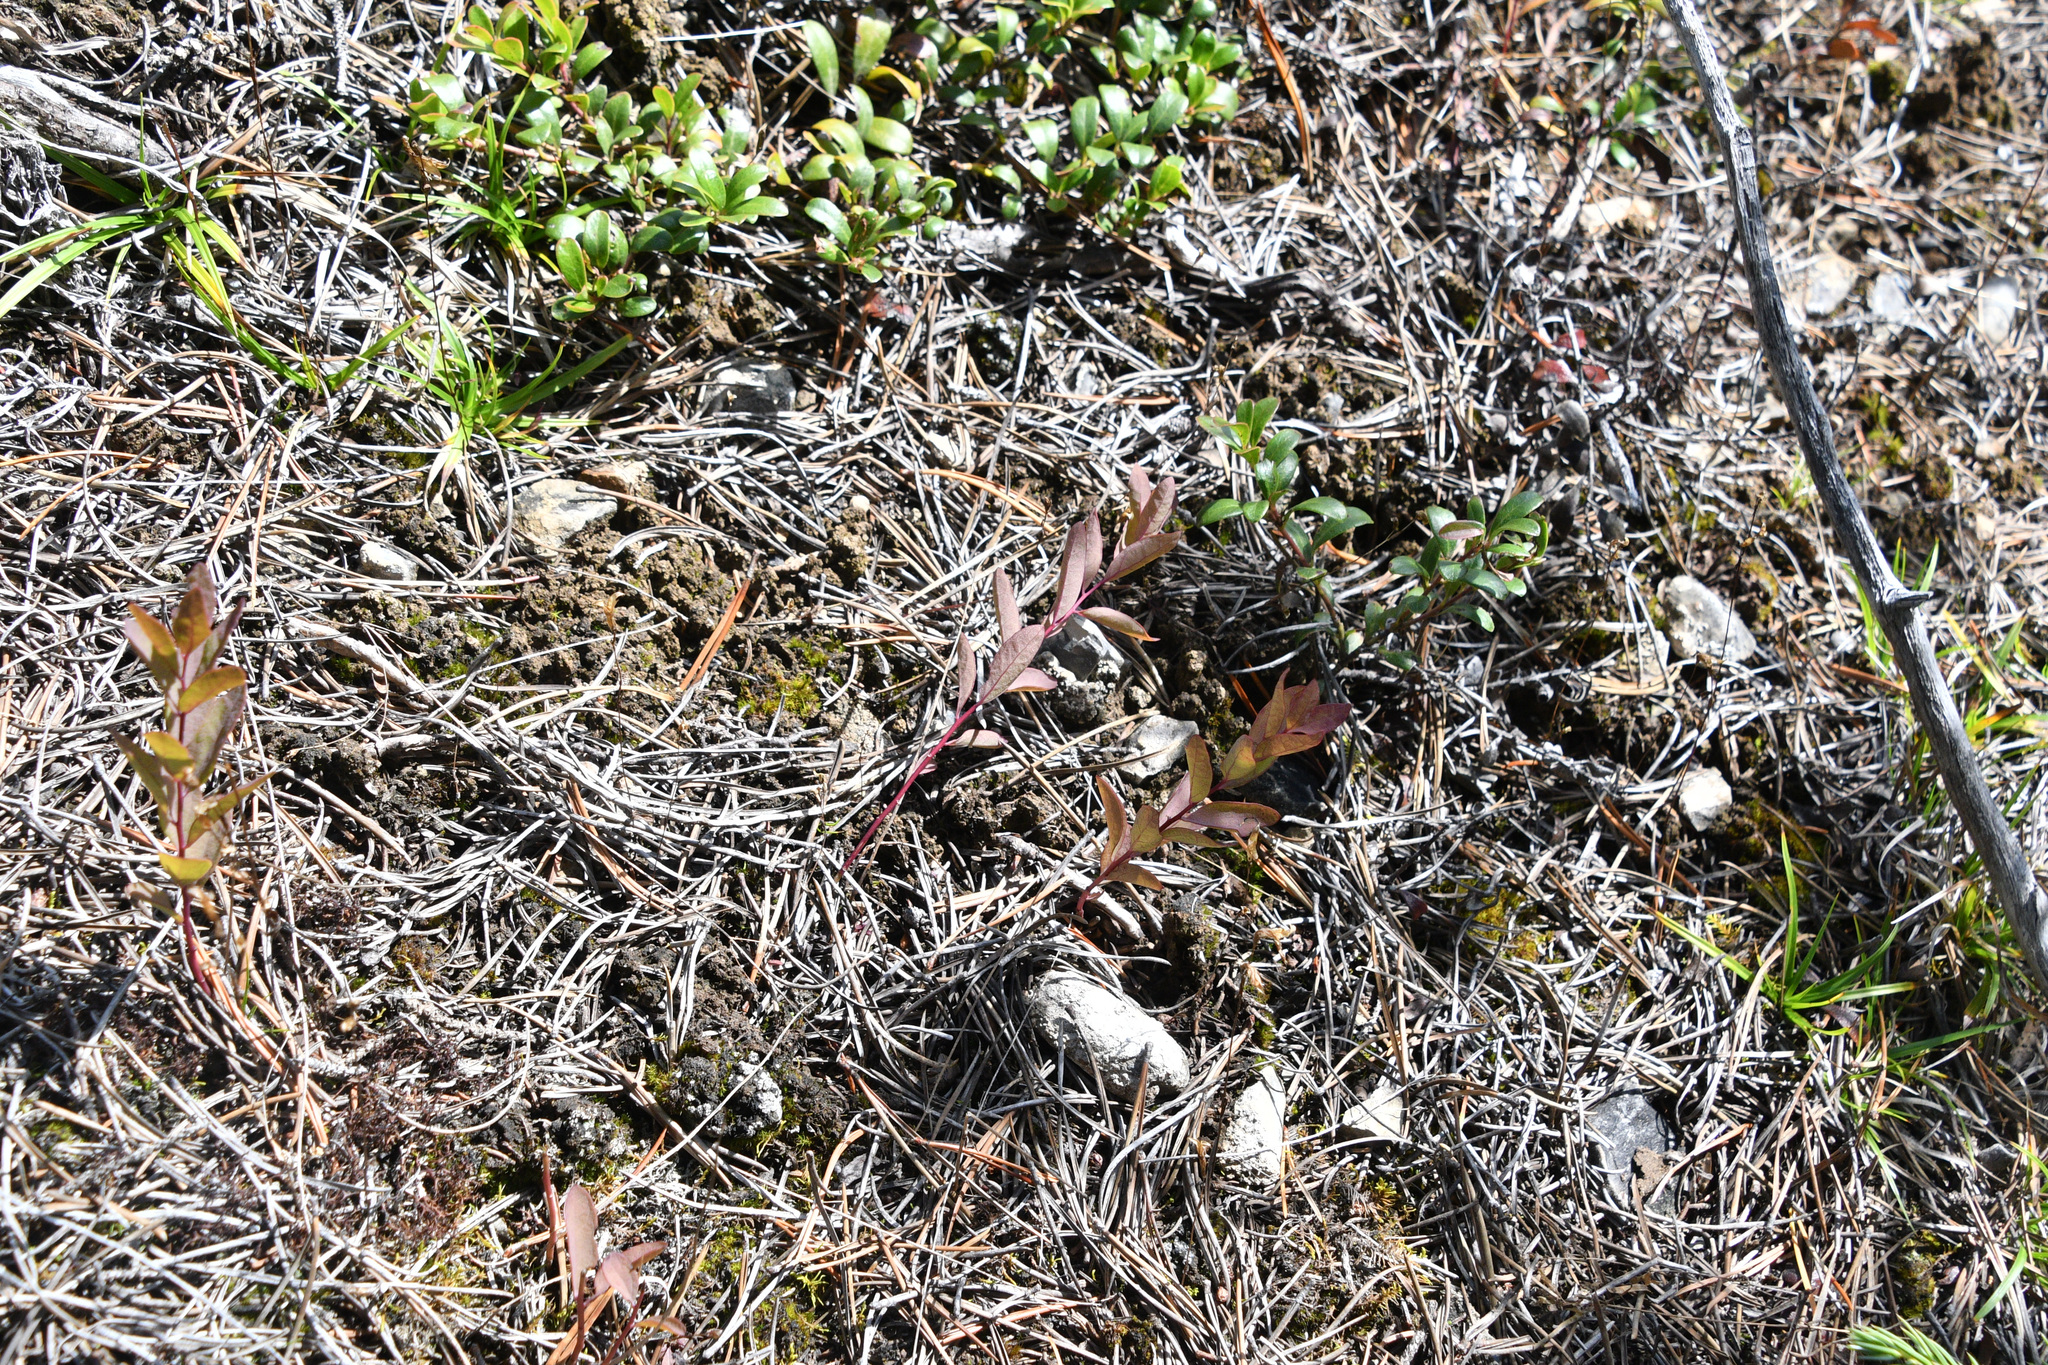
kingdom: Plantae
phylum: Tracheophyta
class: Magnoliopsida
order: Santalales
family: Comandraceae
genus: Geocaulon
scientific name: Geocaulon lividum
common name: Earthberry
